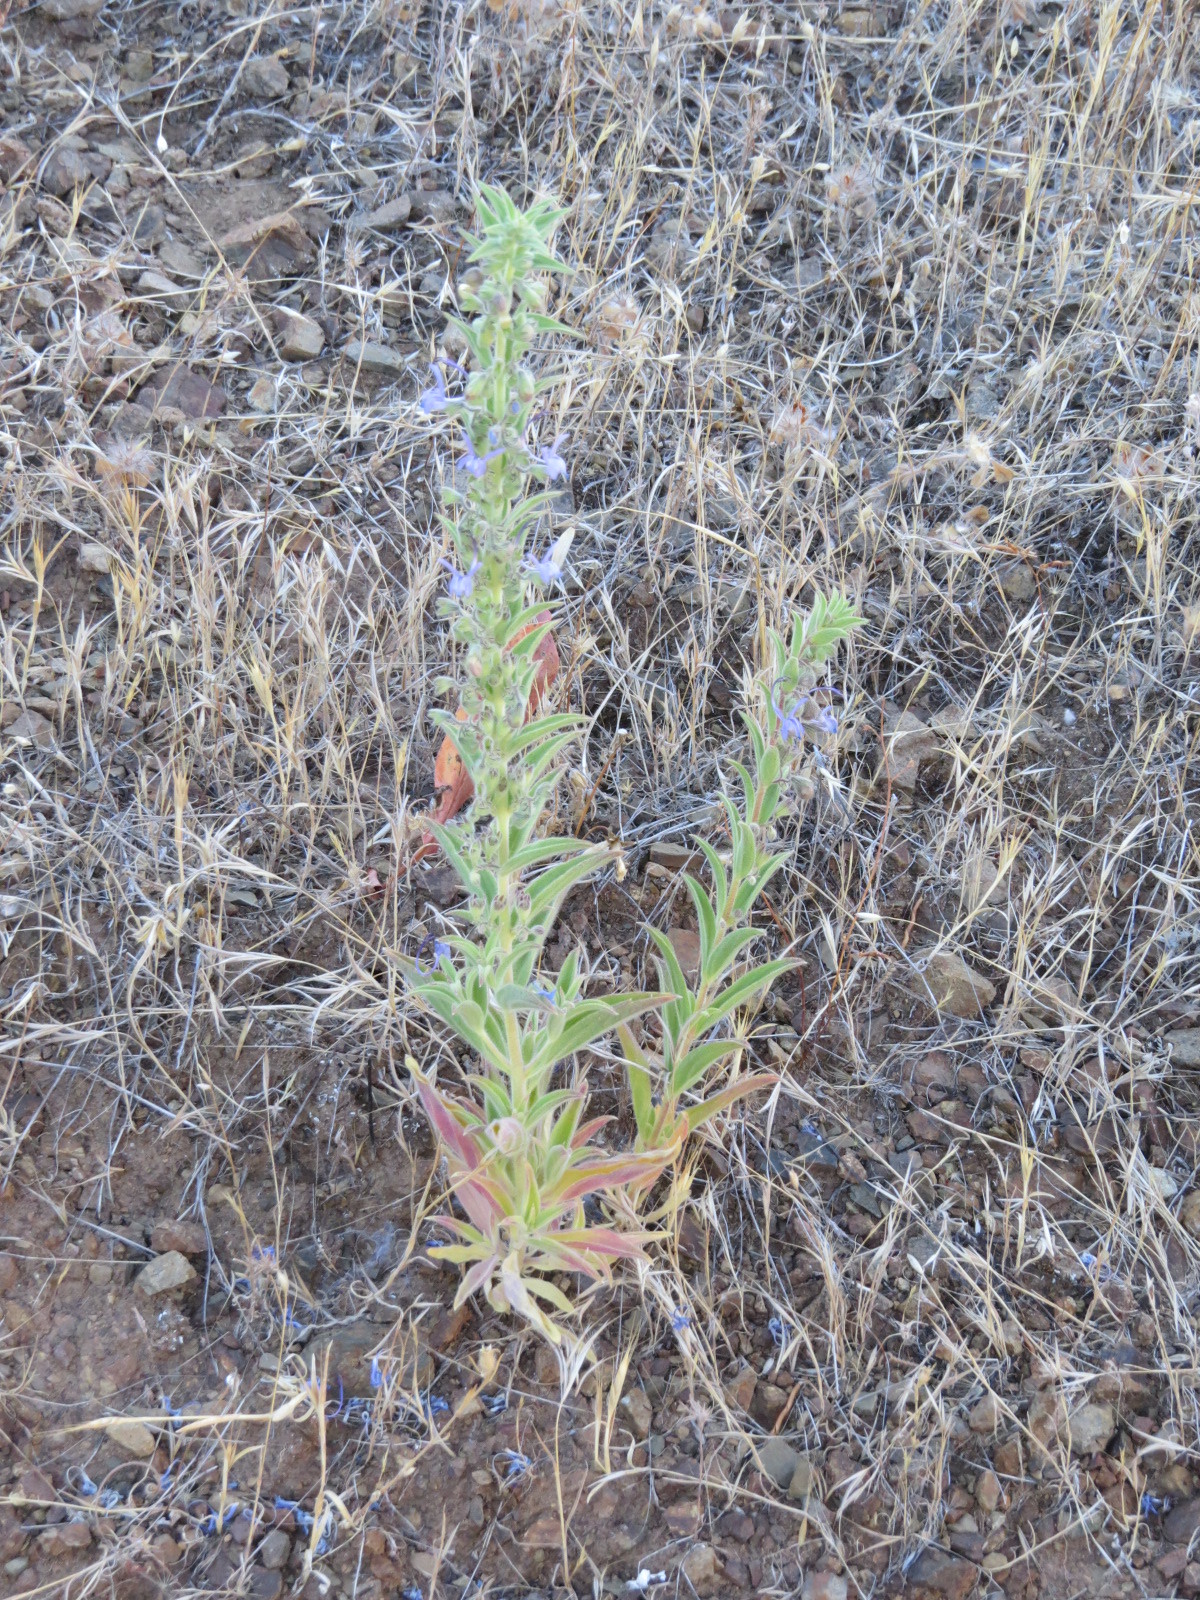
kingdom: Plantae
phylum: Tracheophyta
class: Magnoliopsida
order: Lamiales
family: Lamiaceae
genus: Trichostema
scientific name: Trichostema lanceolatum
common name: Vinegar-weed
